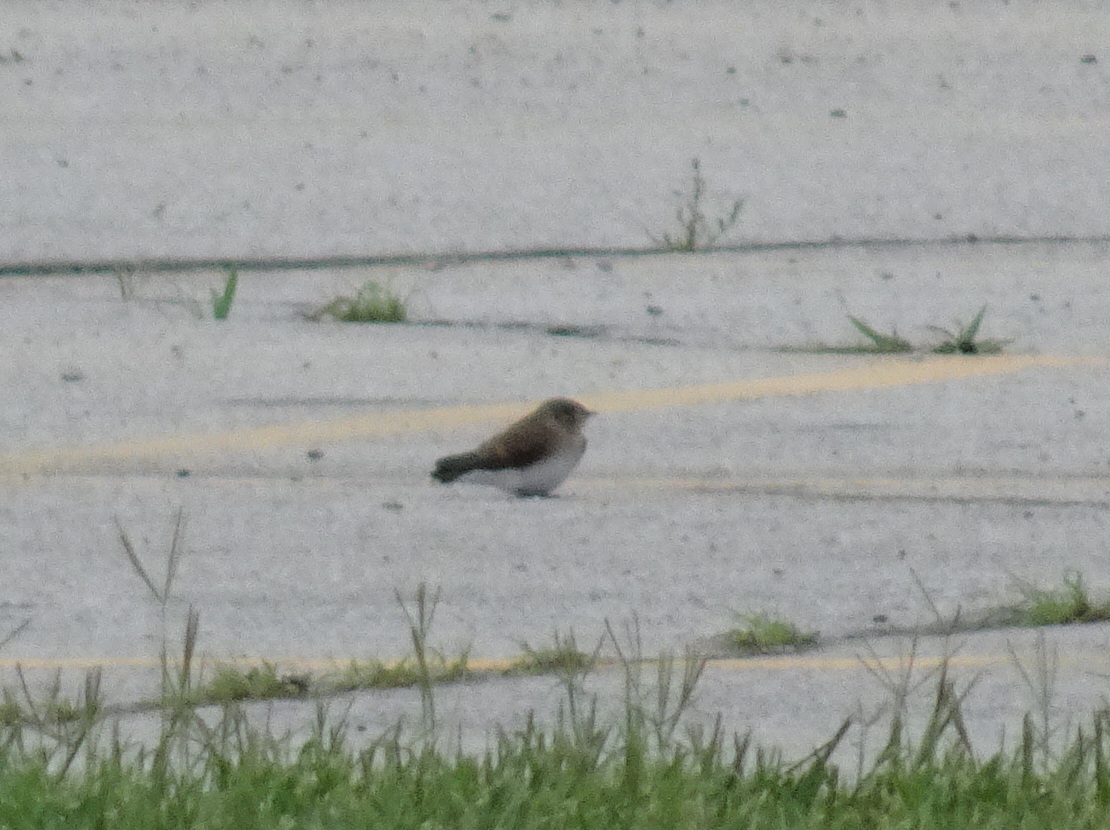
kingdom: Animalia
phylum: Chordata
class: Aves
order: Passeriformes
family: Hirundinidae
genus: Stelgidopteryx
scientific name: Stelgidopteryx serripennis
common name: Northern rough-winged swallow
